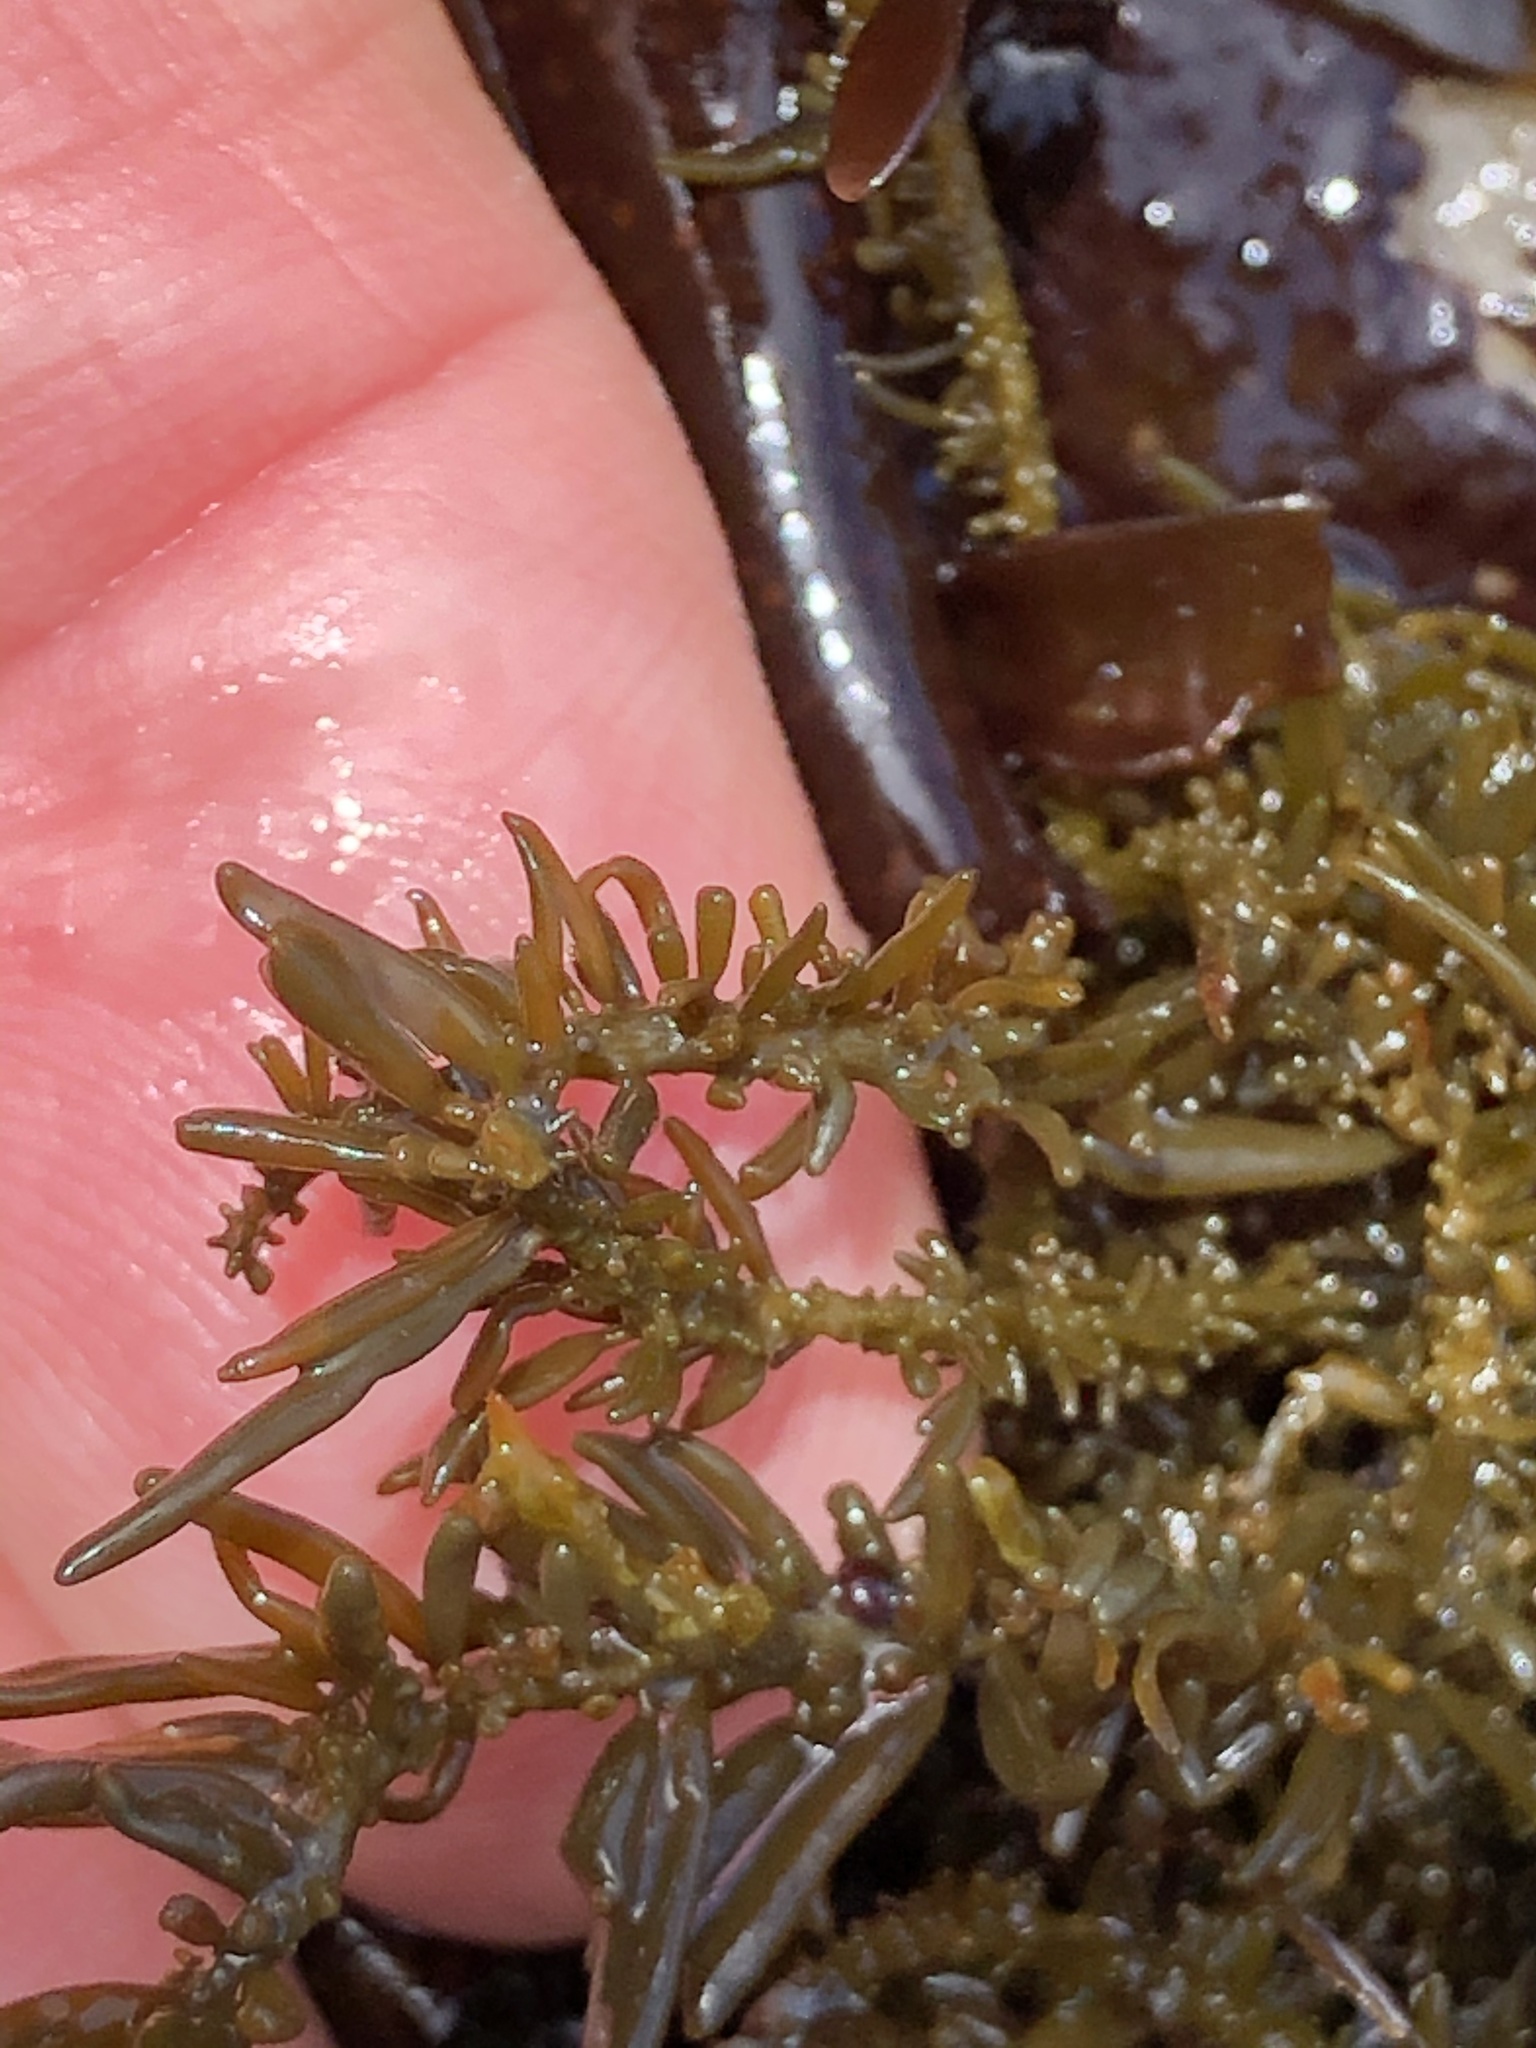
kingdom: Chromista
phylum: Ochrophyta
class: Phaeophyceae
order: Scytosiphonales
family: Scytosiphonaceae
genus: Analipus
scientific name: Analipus japonicus
